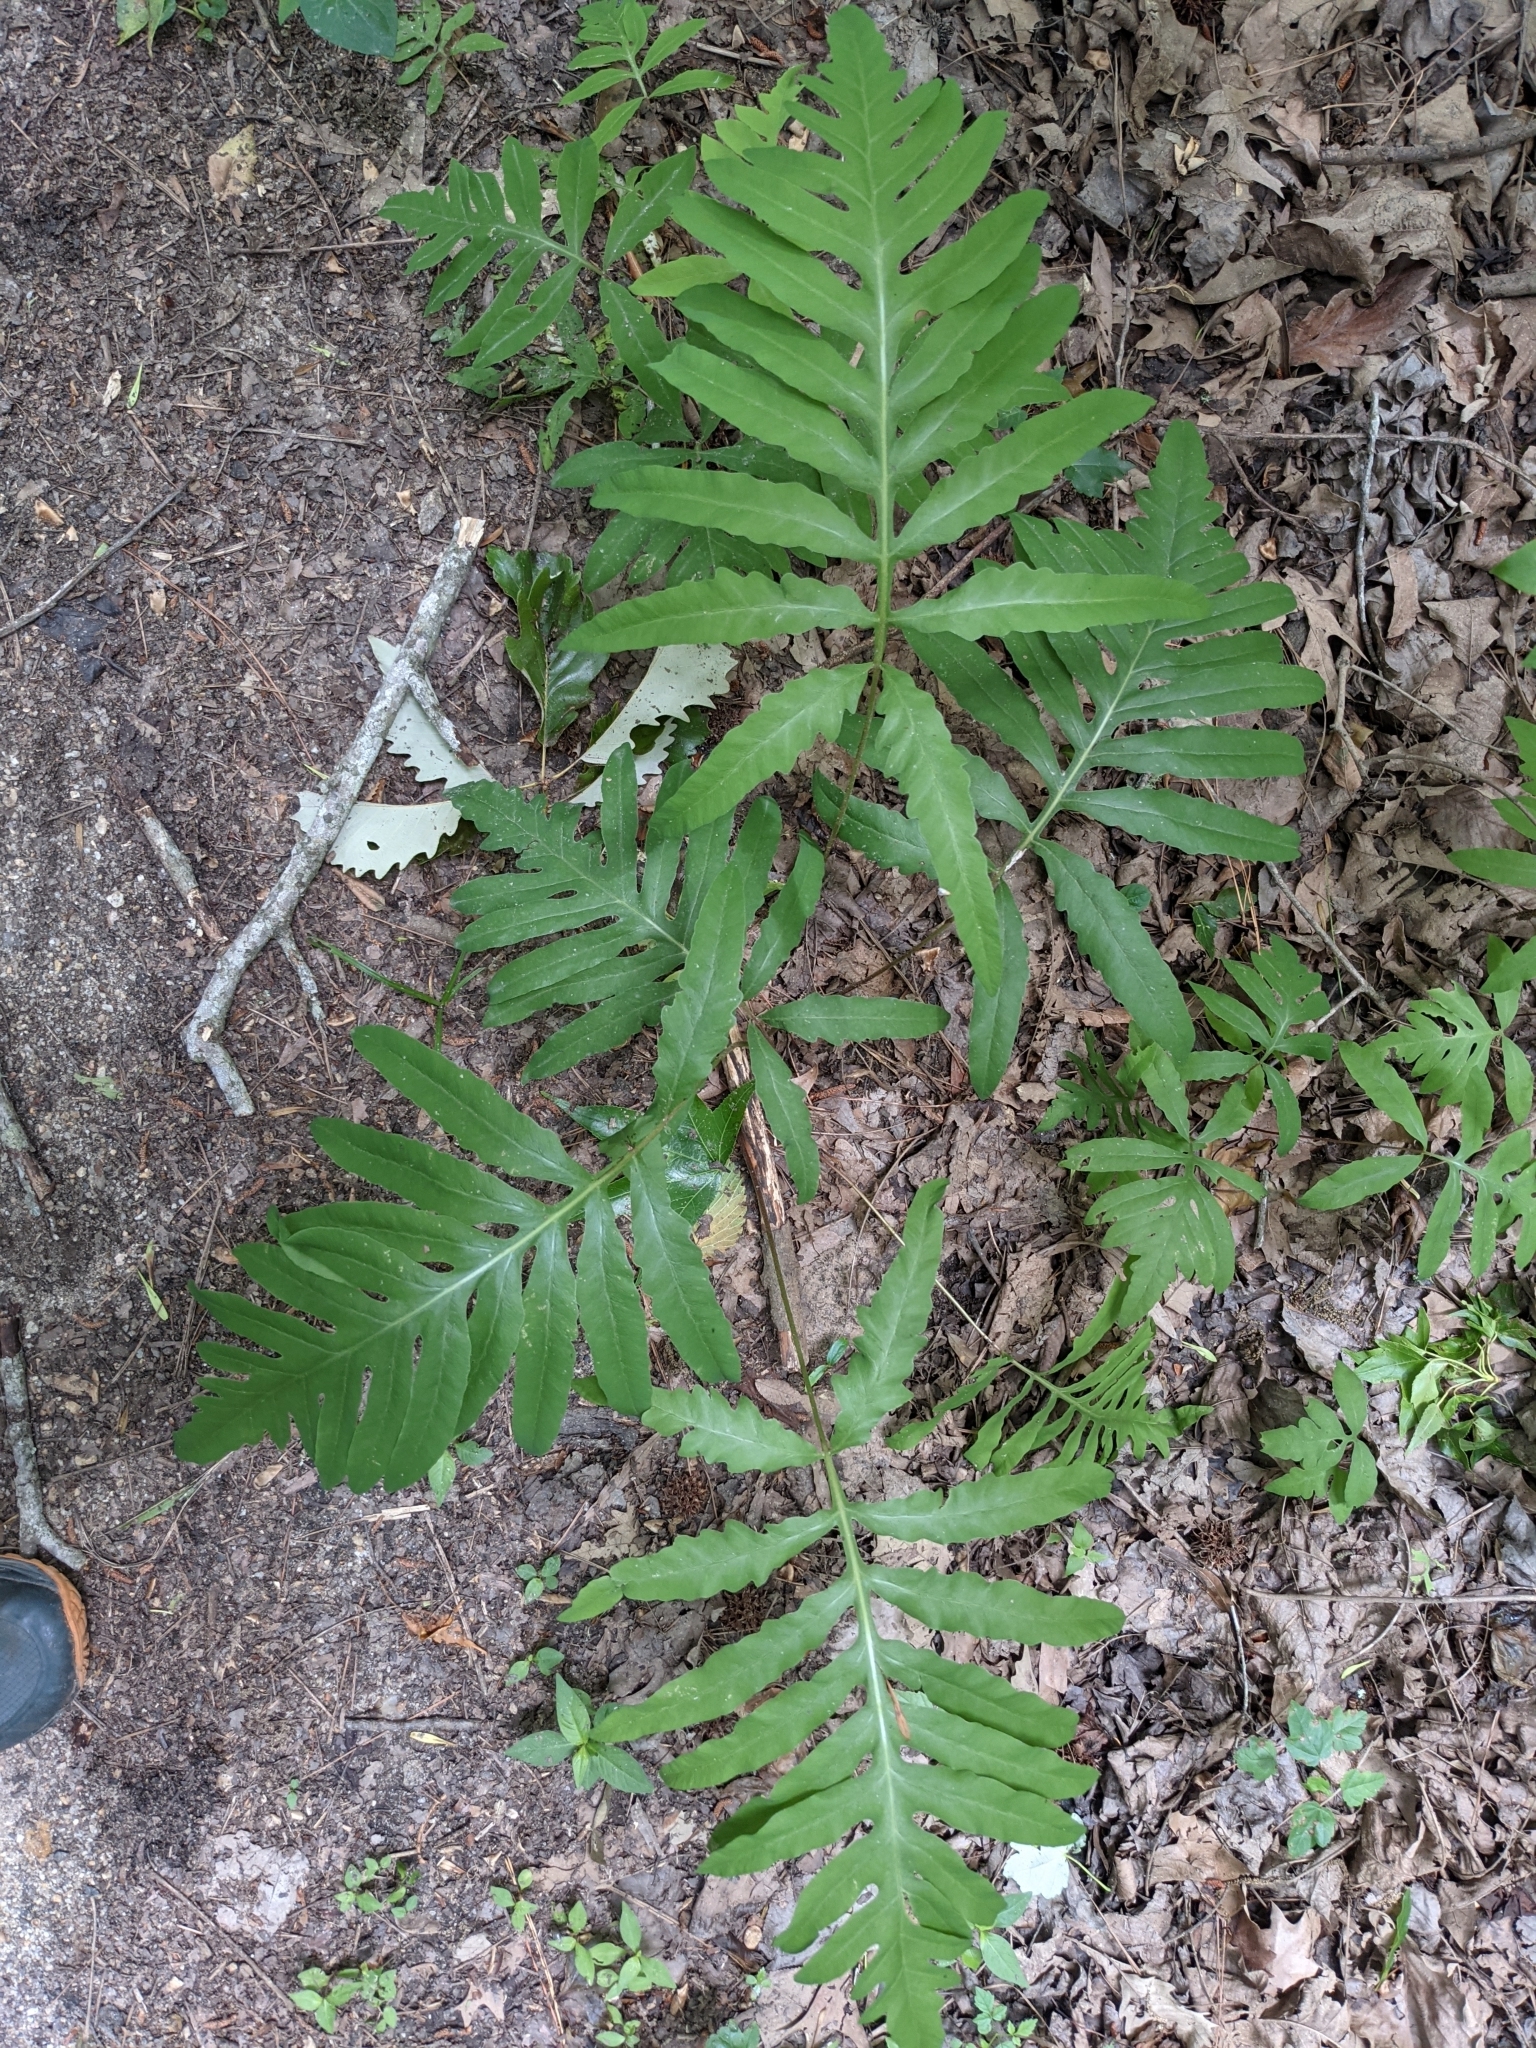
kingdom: Plantae
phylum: Tracheophyta
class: Polypodiopsida
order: Polypodiales
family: Onocleaceae
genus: Onoclea
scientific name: Onoclea sensibilis
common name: Sensitive fern
